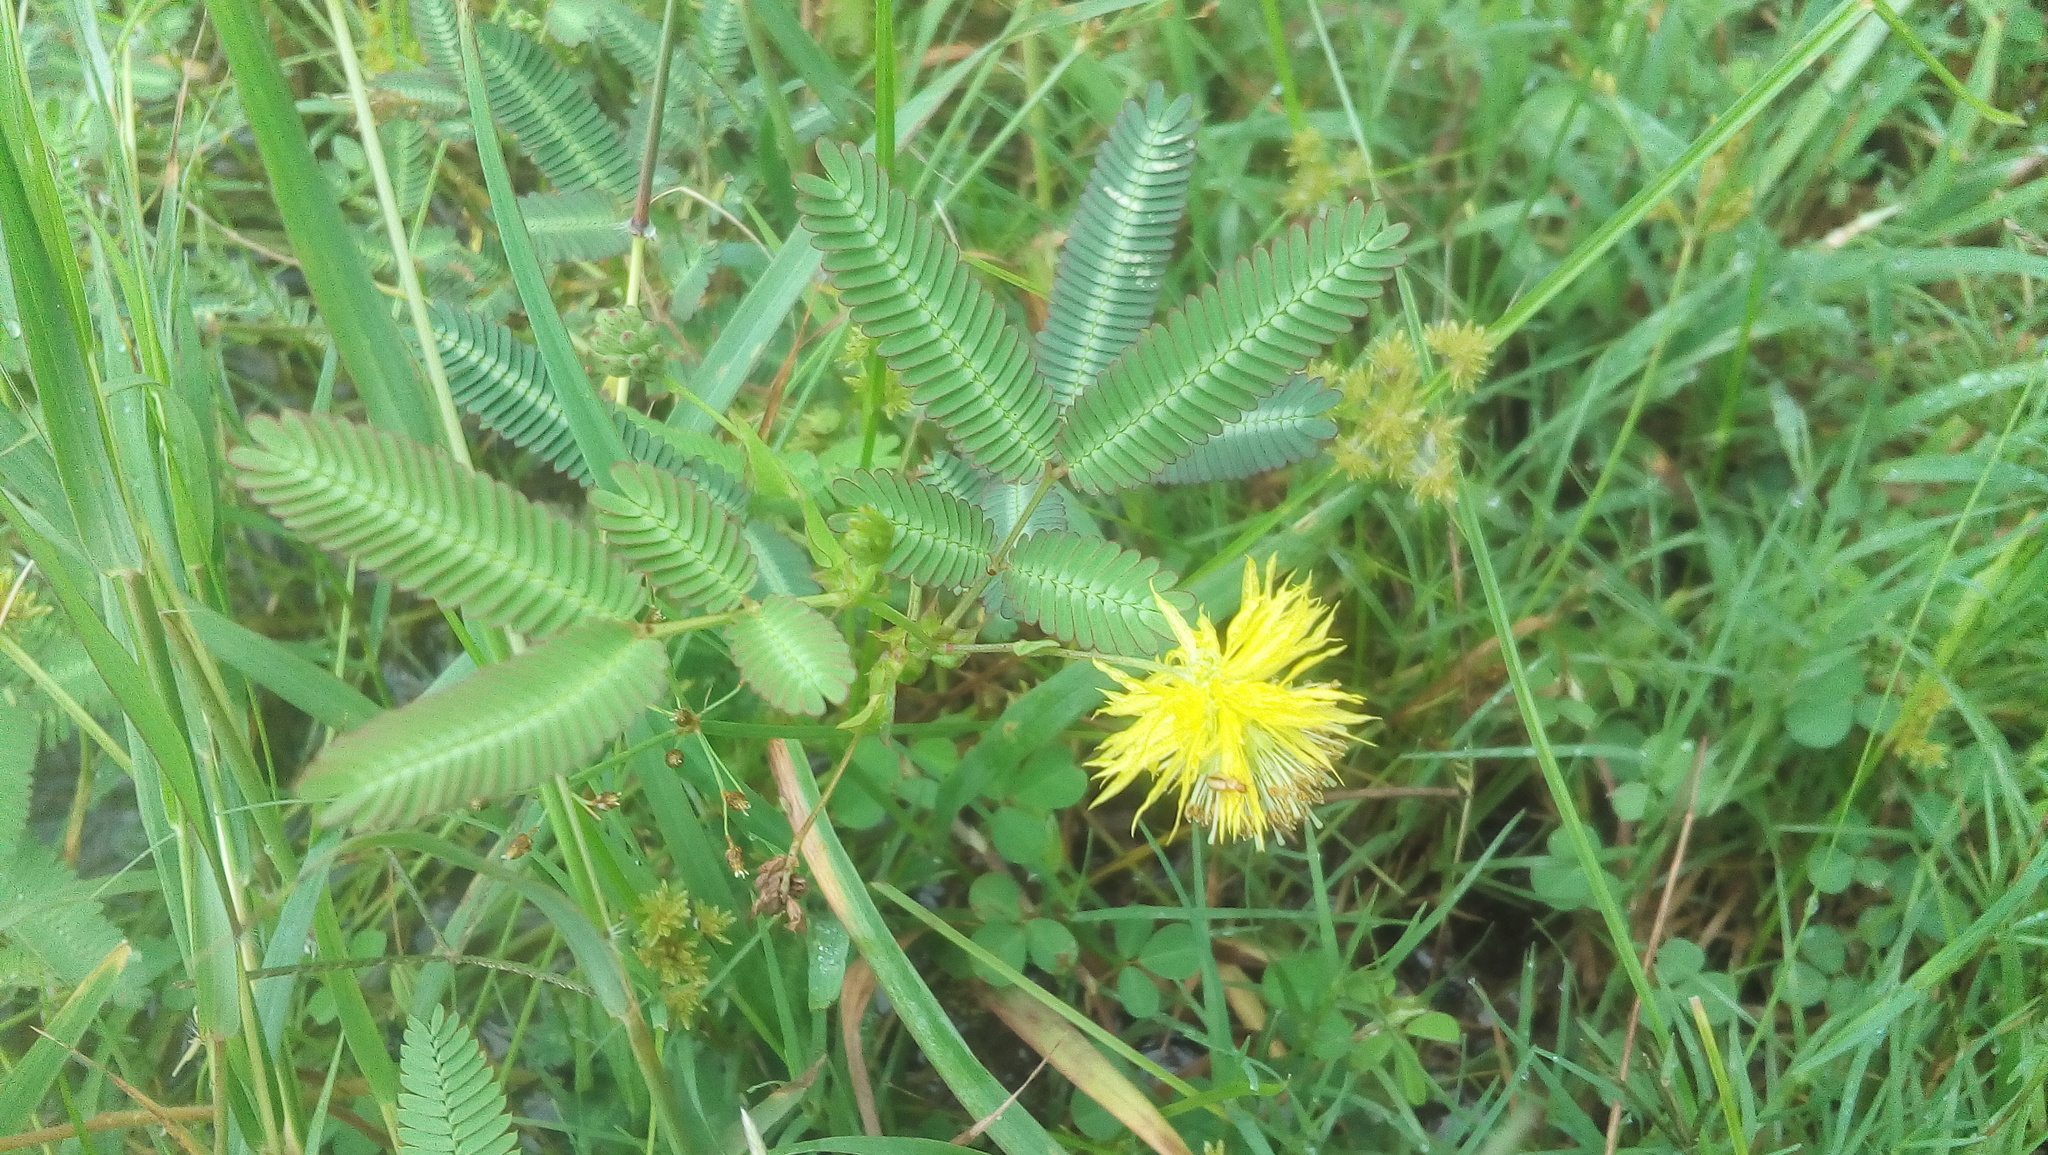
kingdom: Plantae
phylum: Tracheophyta
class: Magnoliopsida
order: Fabales
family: Fabaceae
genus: Neptunia
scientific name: Neptunia plena
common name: Dead and awake
